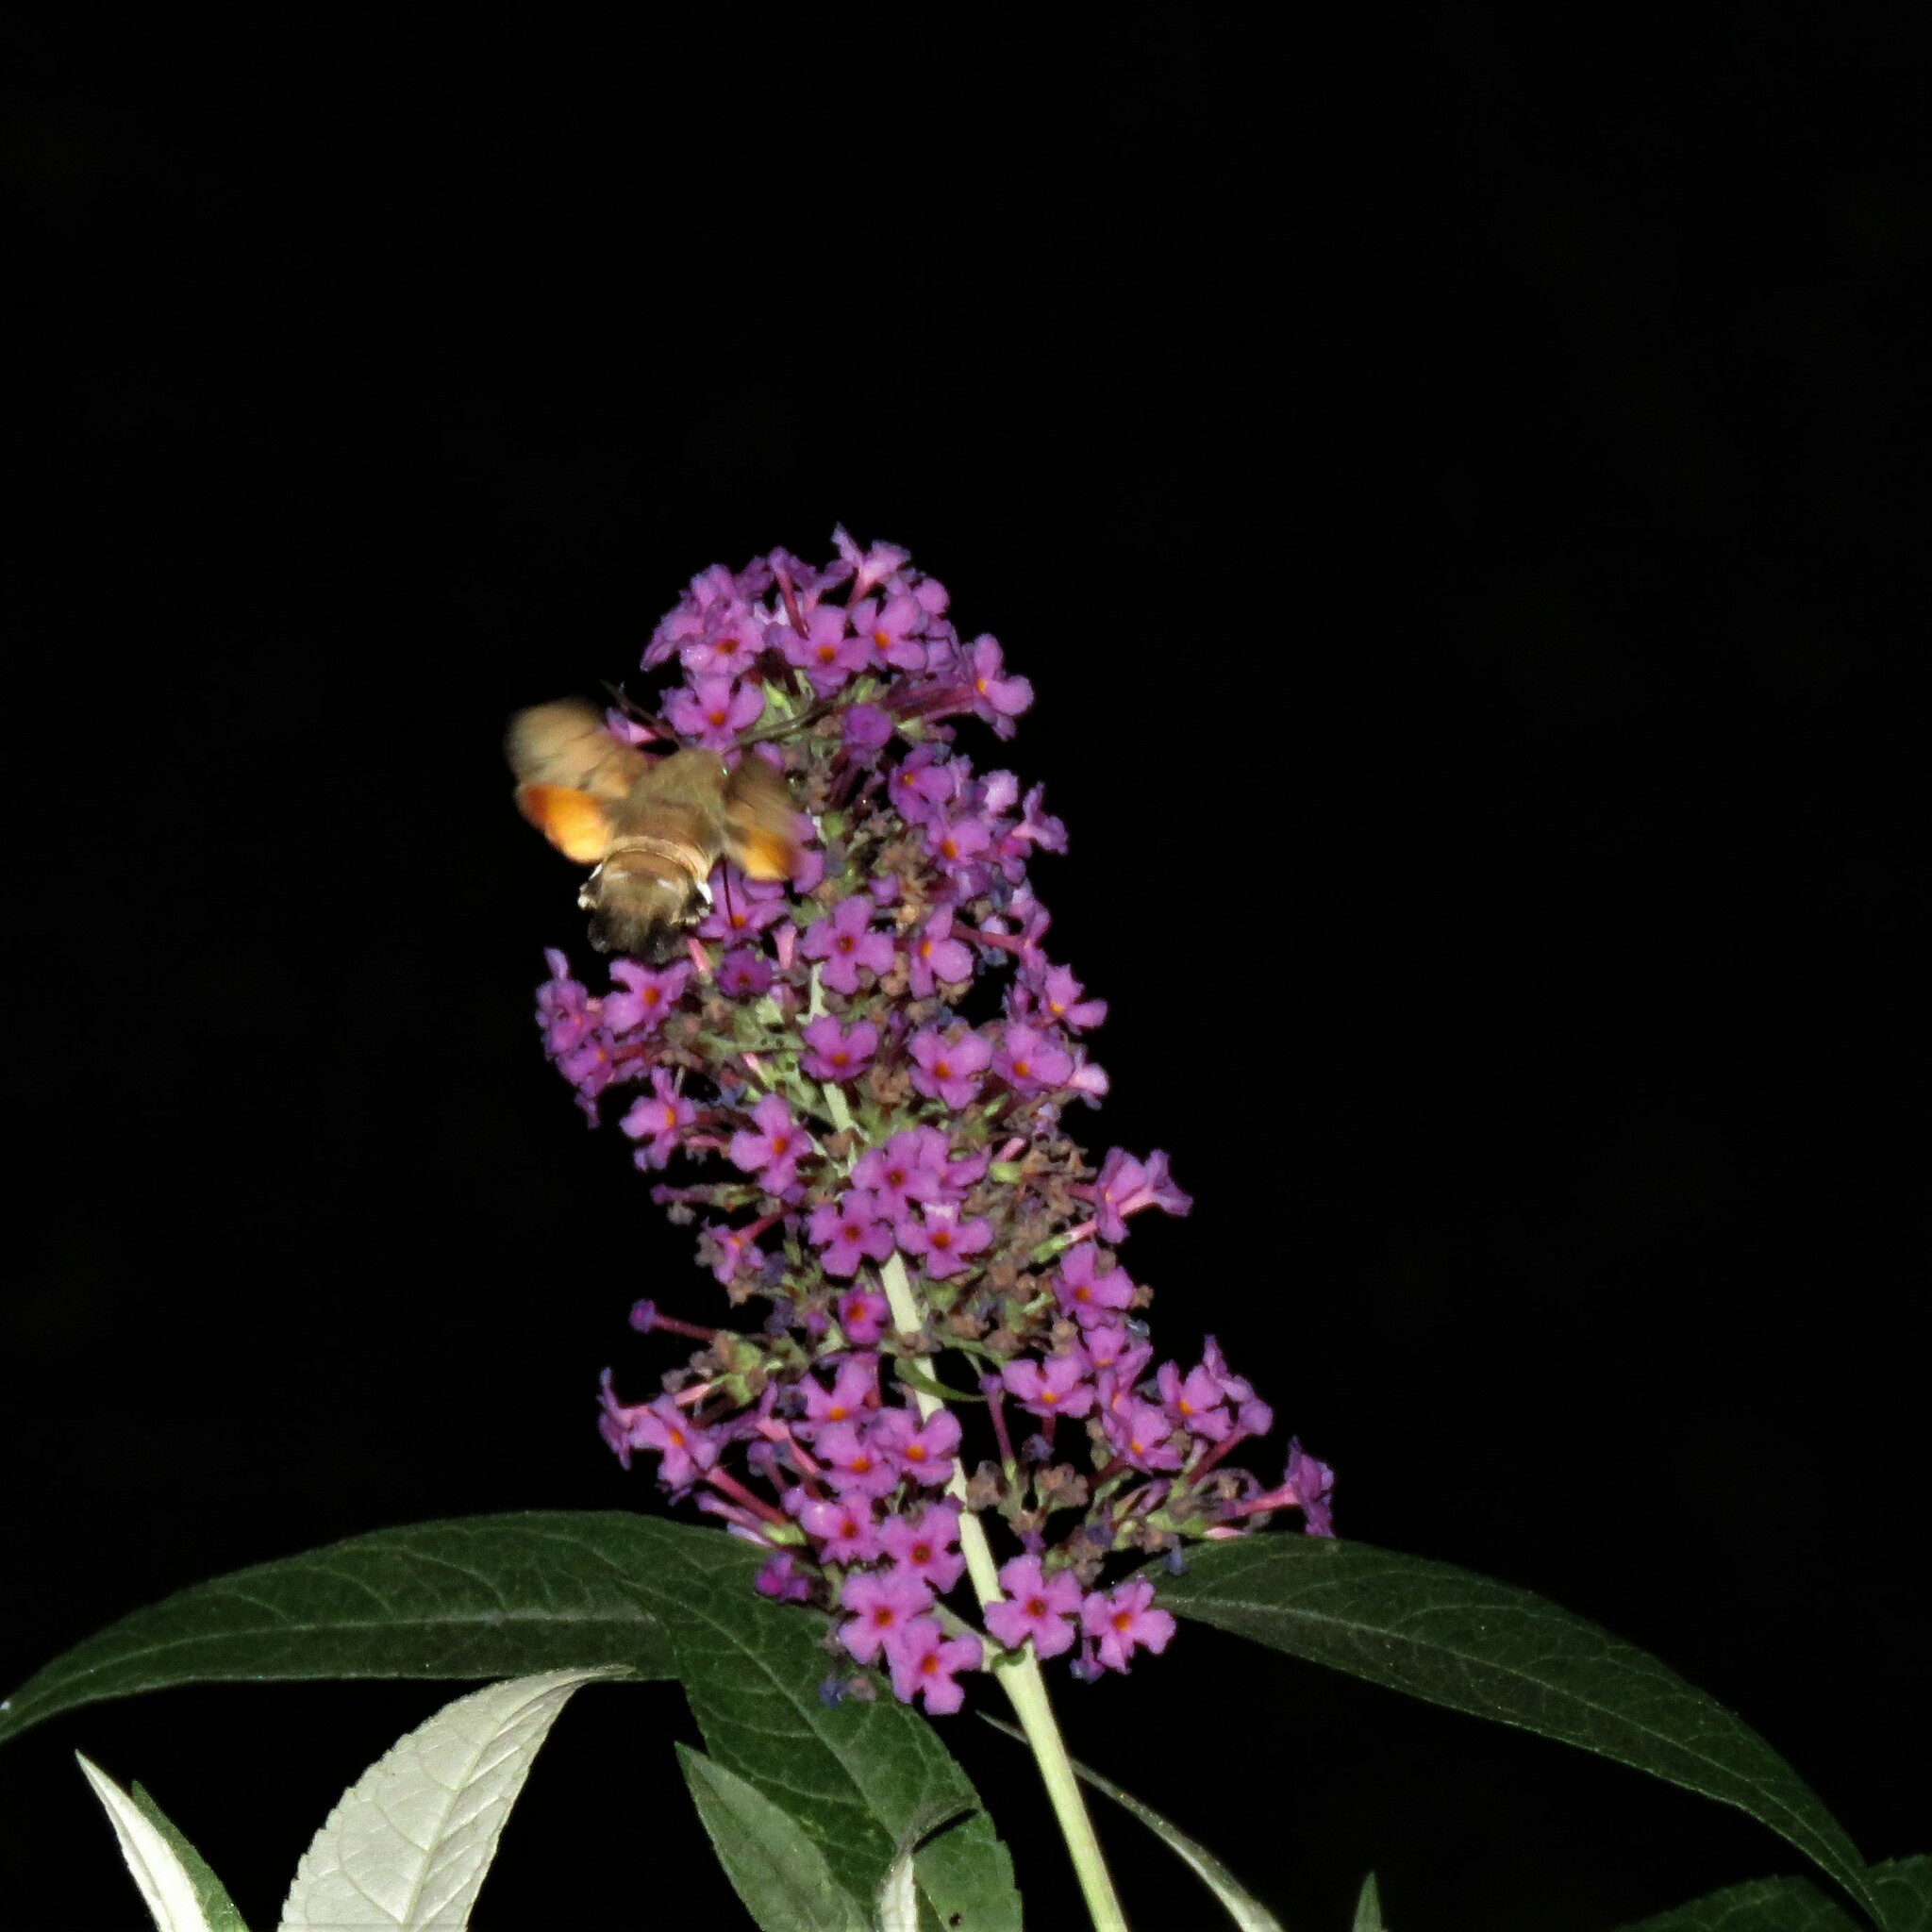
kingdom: Animalia
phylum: Arthropoda
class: Insecta
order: Lepidoptera
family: Sphingidae
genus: Macroglossum
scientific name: Macroglossum stellatarum
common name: Humming-bird hawk-moth
